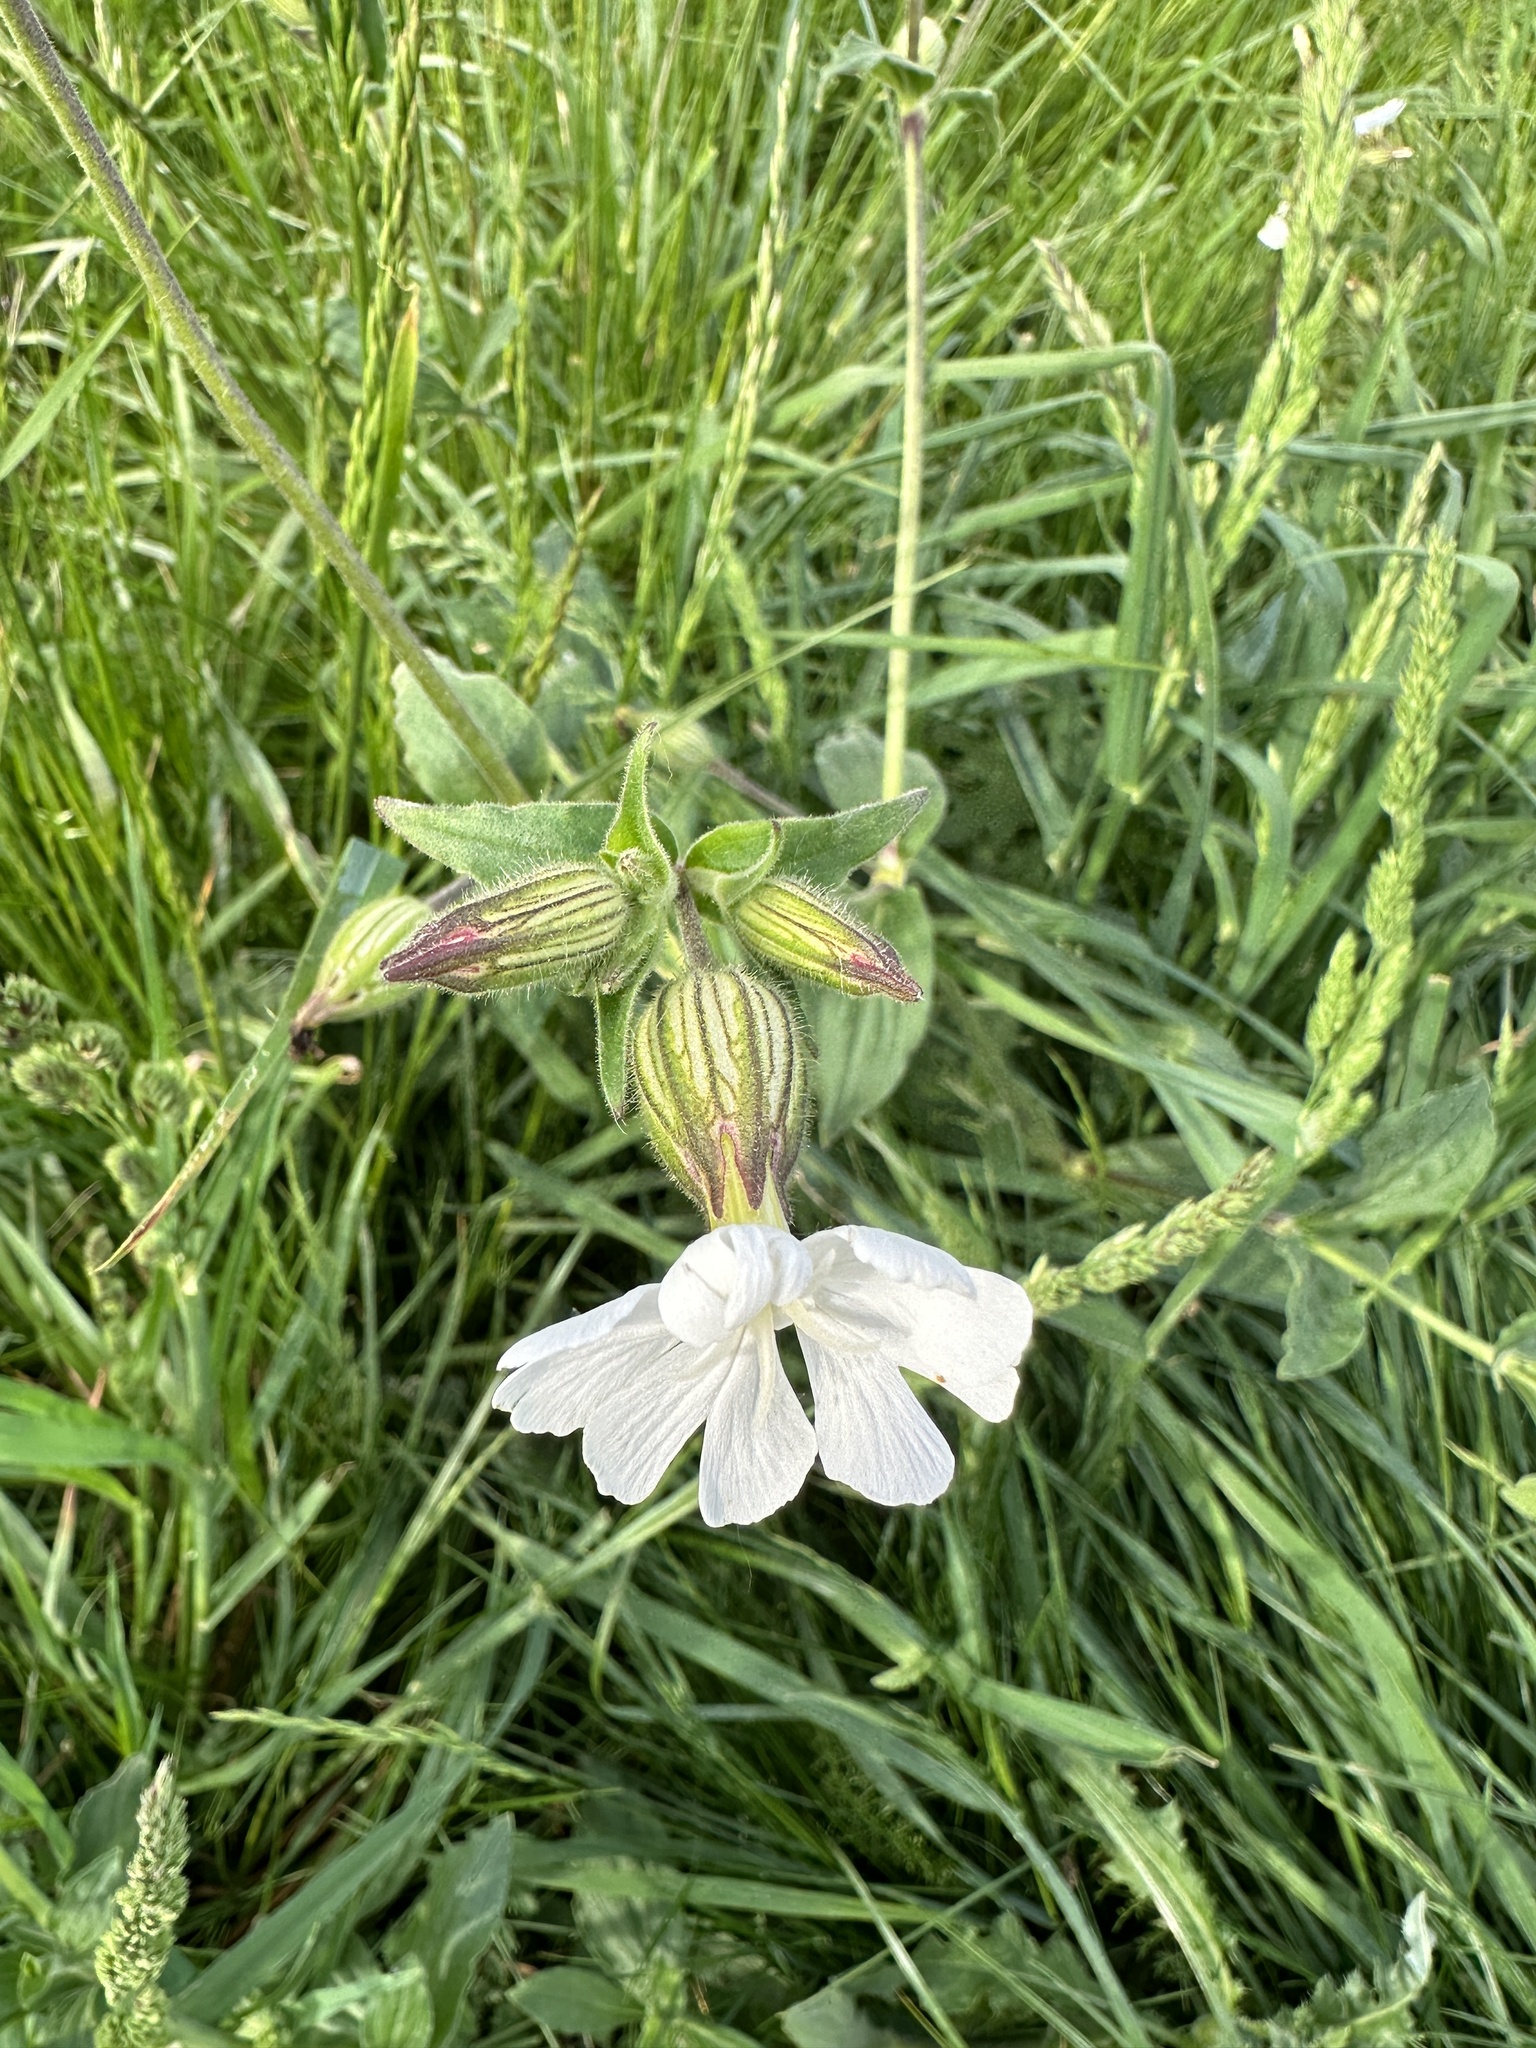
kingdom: Plantae
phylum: Tracheophyta
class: Magnoliopsida
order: Caryophyllales
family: Caryophyllaceae
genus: Silene
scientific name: Silene latifolia
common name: White campion
